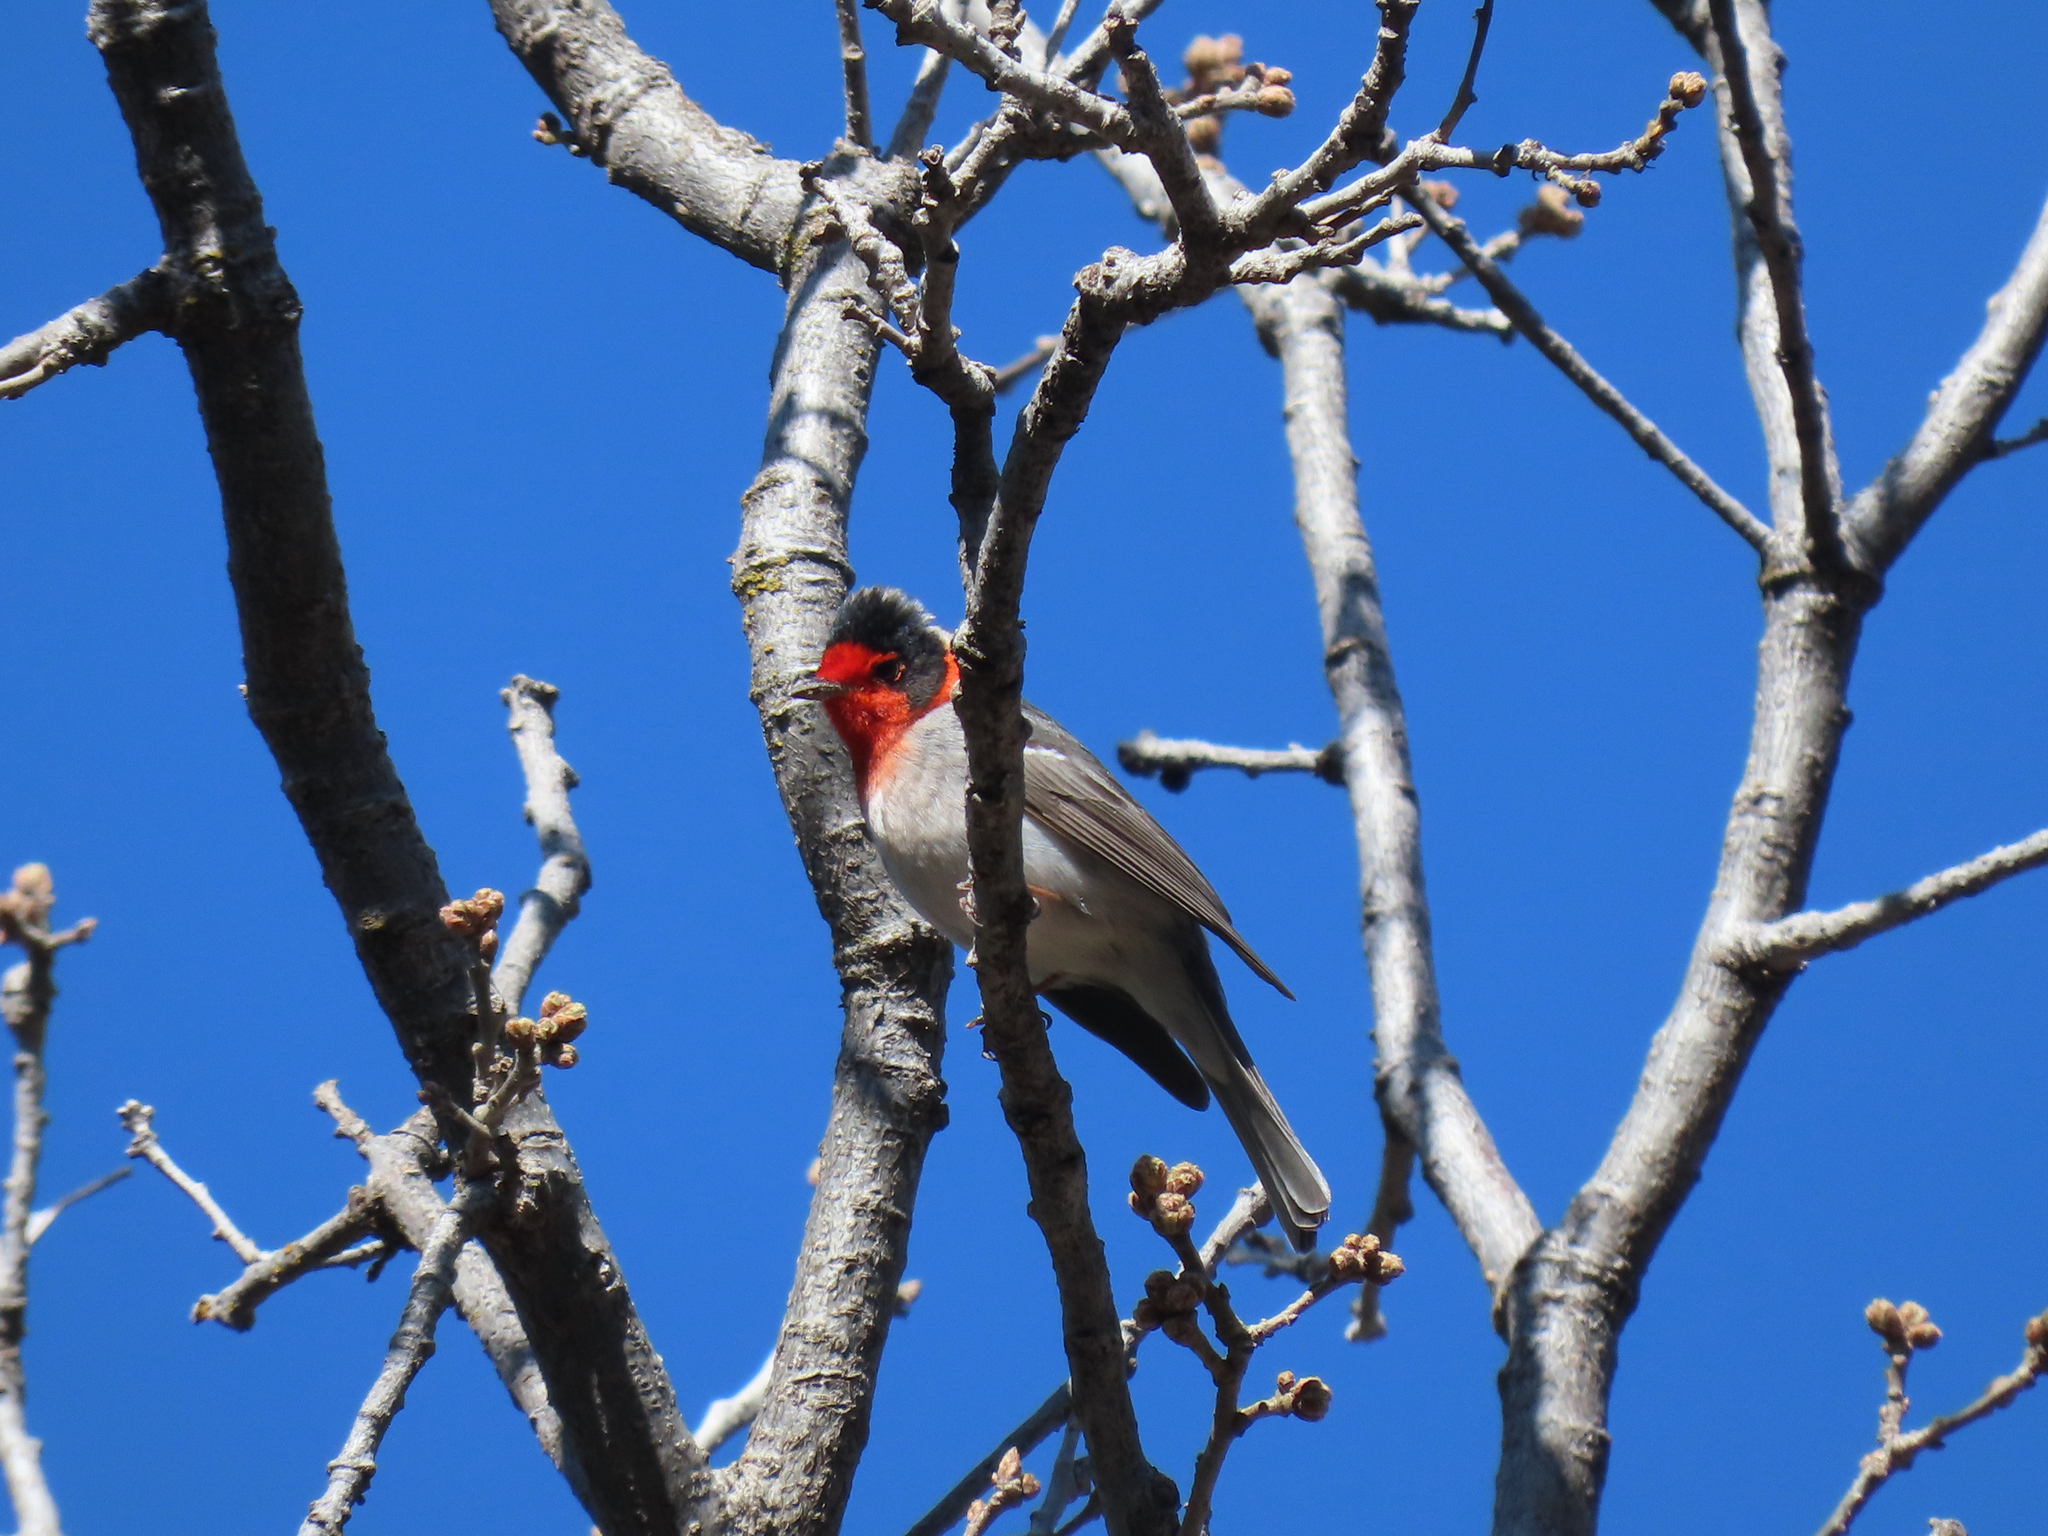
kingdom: Animalia
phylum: Chordata
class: Aves
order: Passeriformes
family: Parulidae
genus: Cardellina
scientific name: Cardellina rubrifrons
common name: Red-faced warbler
